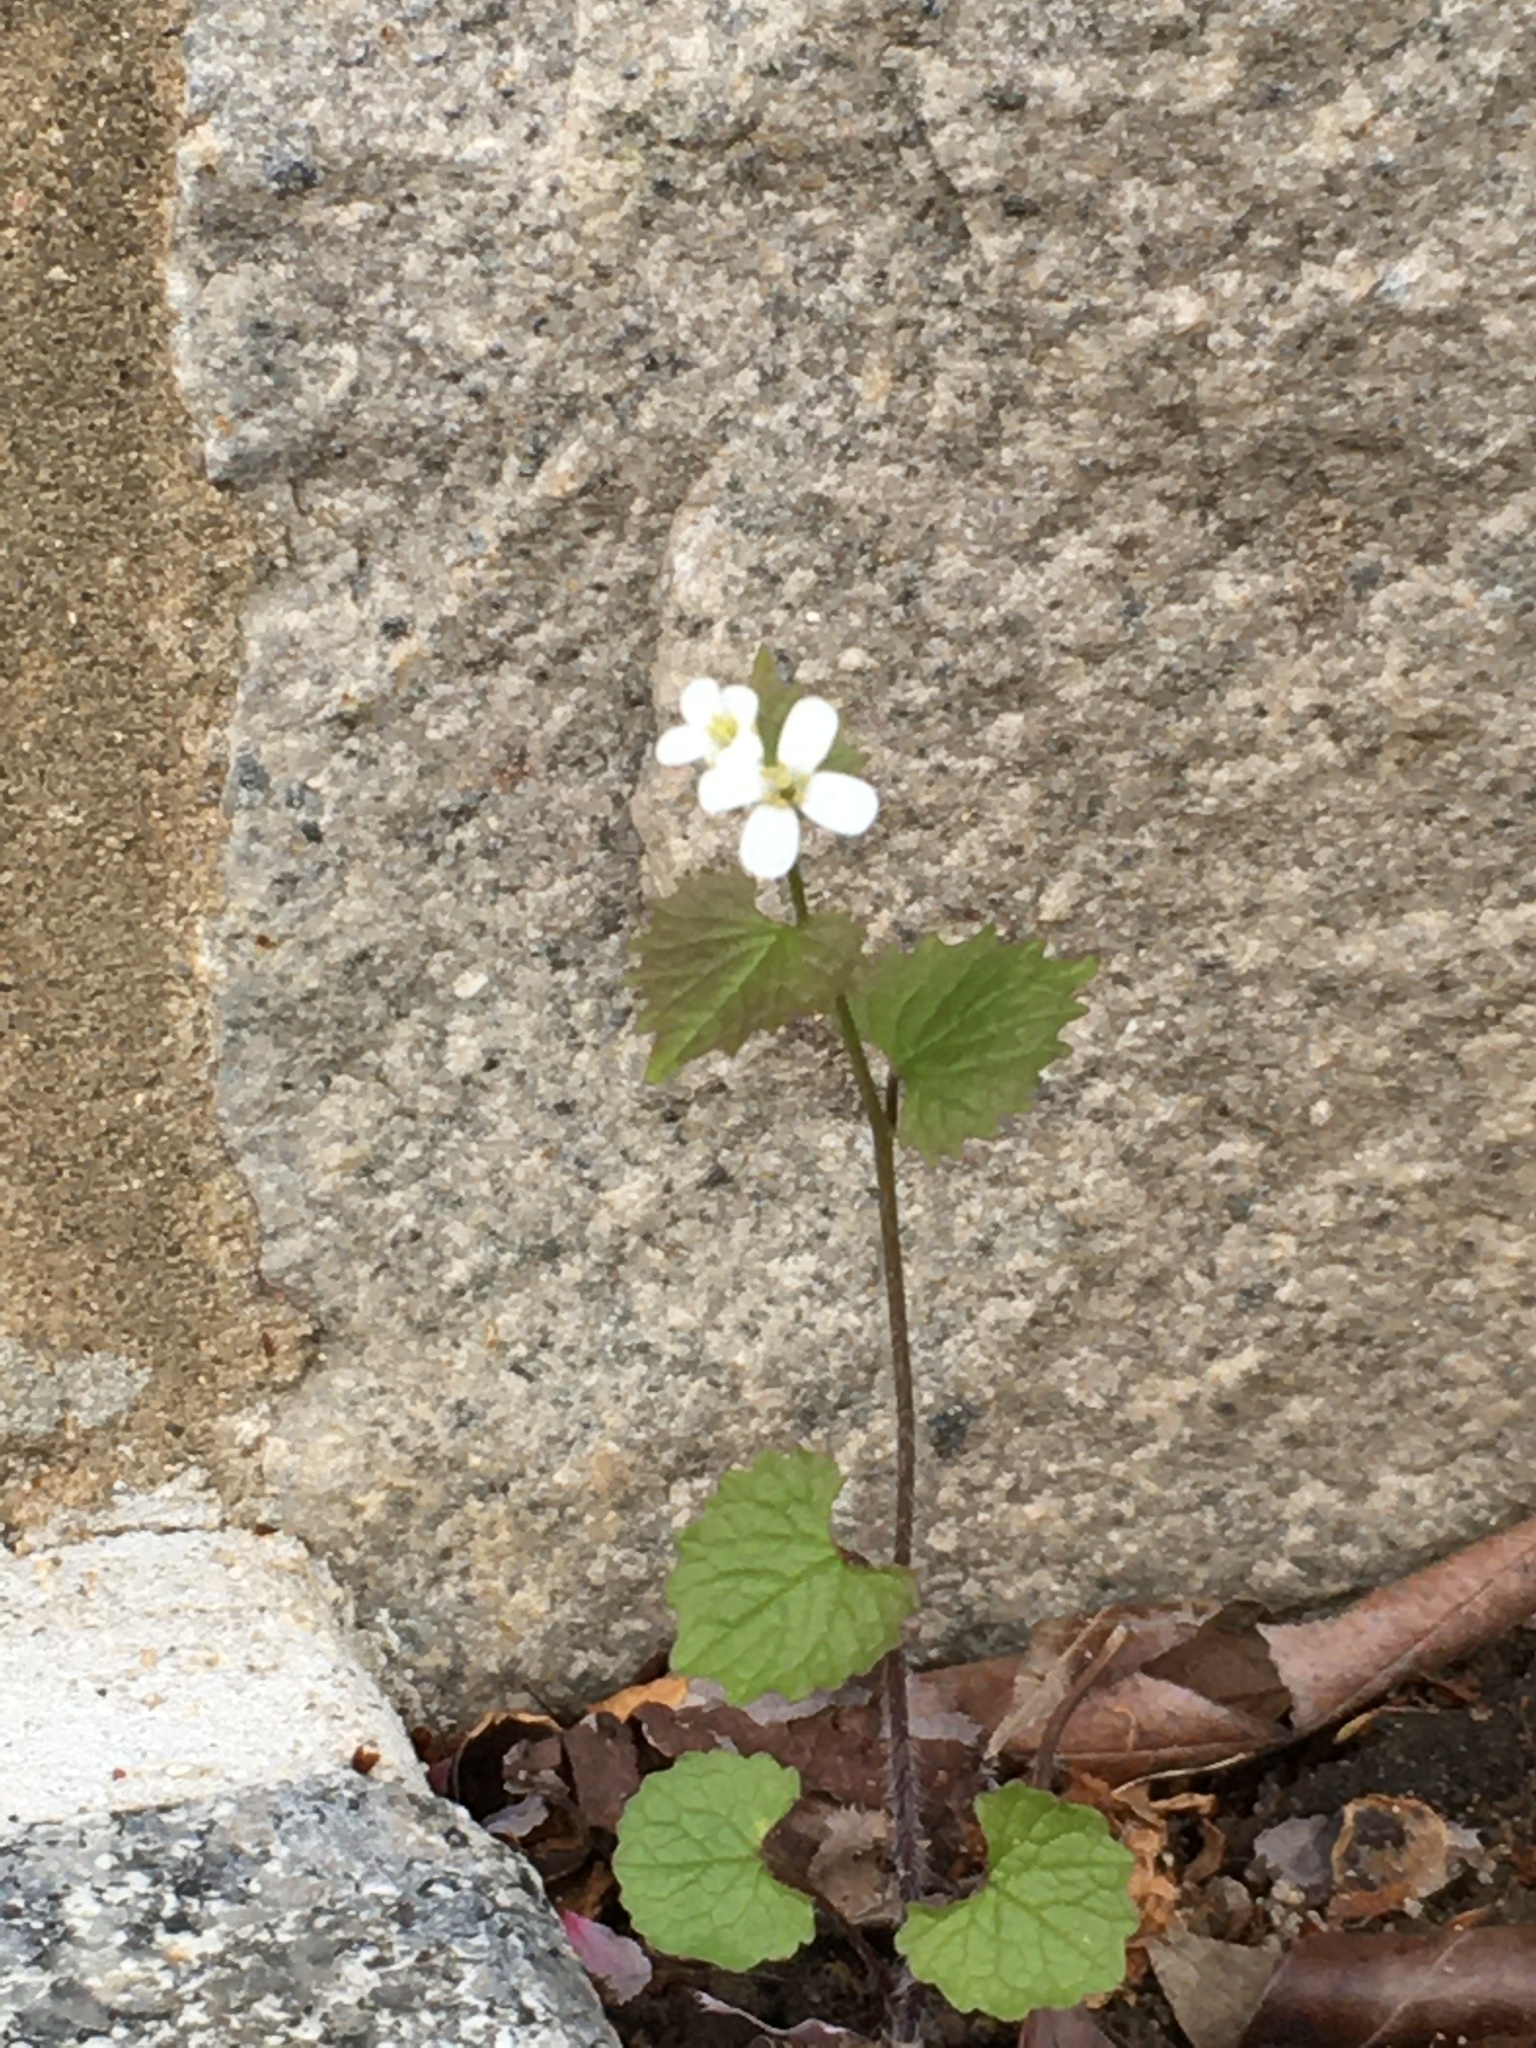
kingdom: Plantae
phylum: Tracheophyta
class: Magnoliopsida
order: Brassicales
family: Brassicaceae
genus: Alliaria
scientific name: Alliaria petiolata
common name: Garlic mustard
